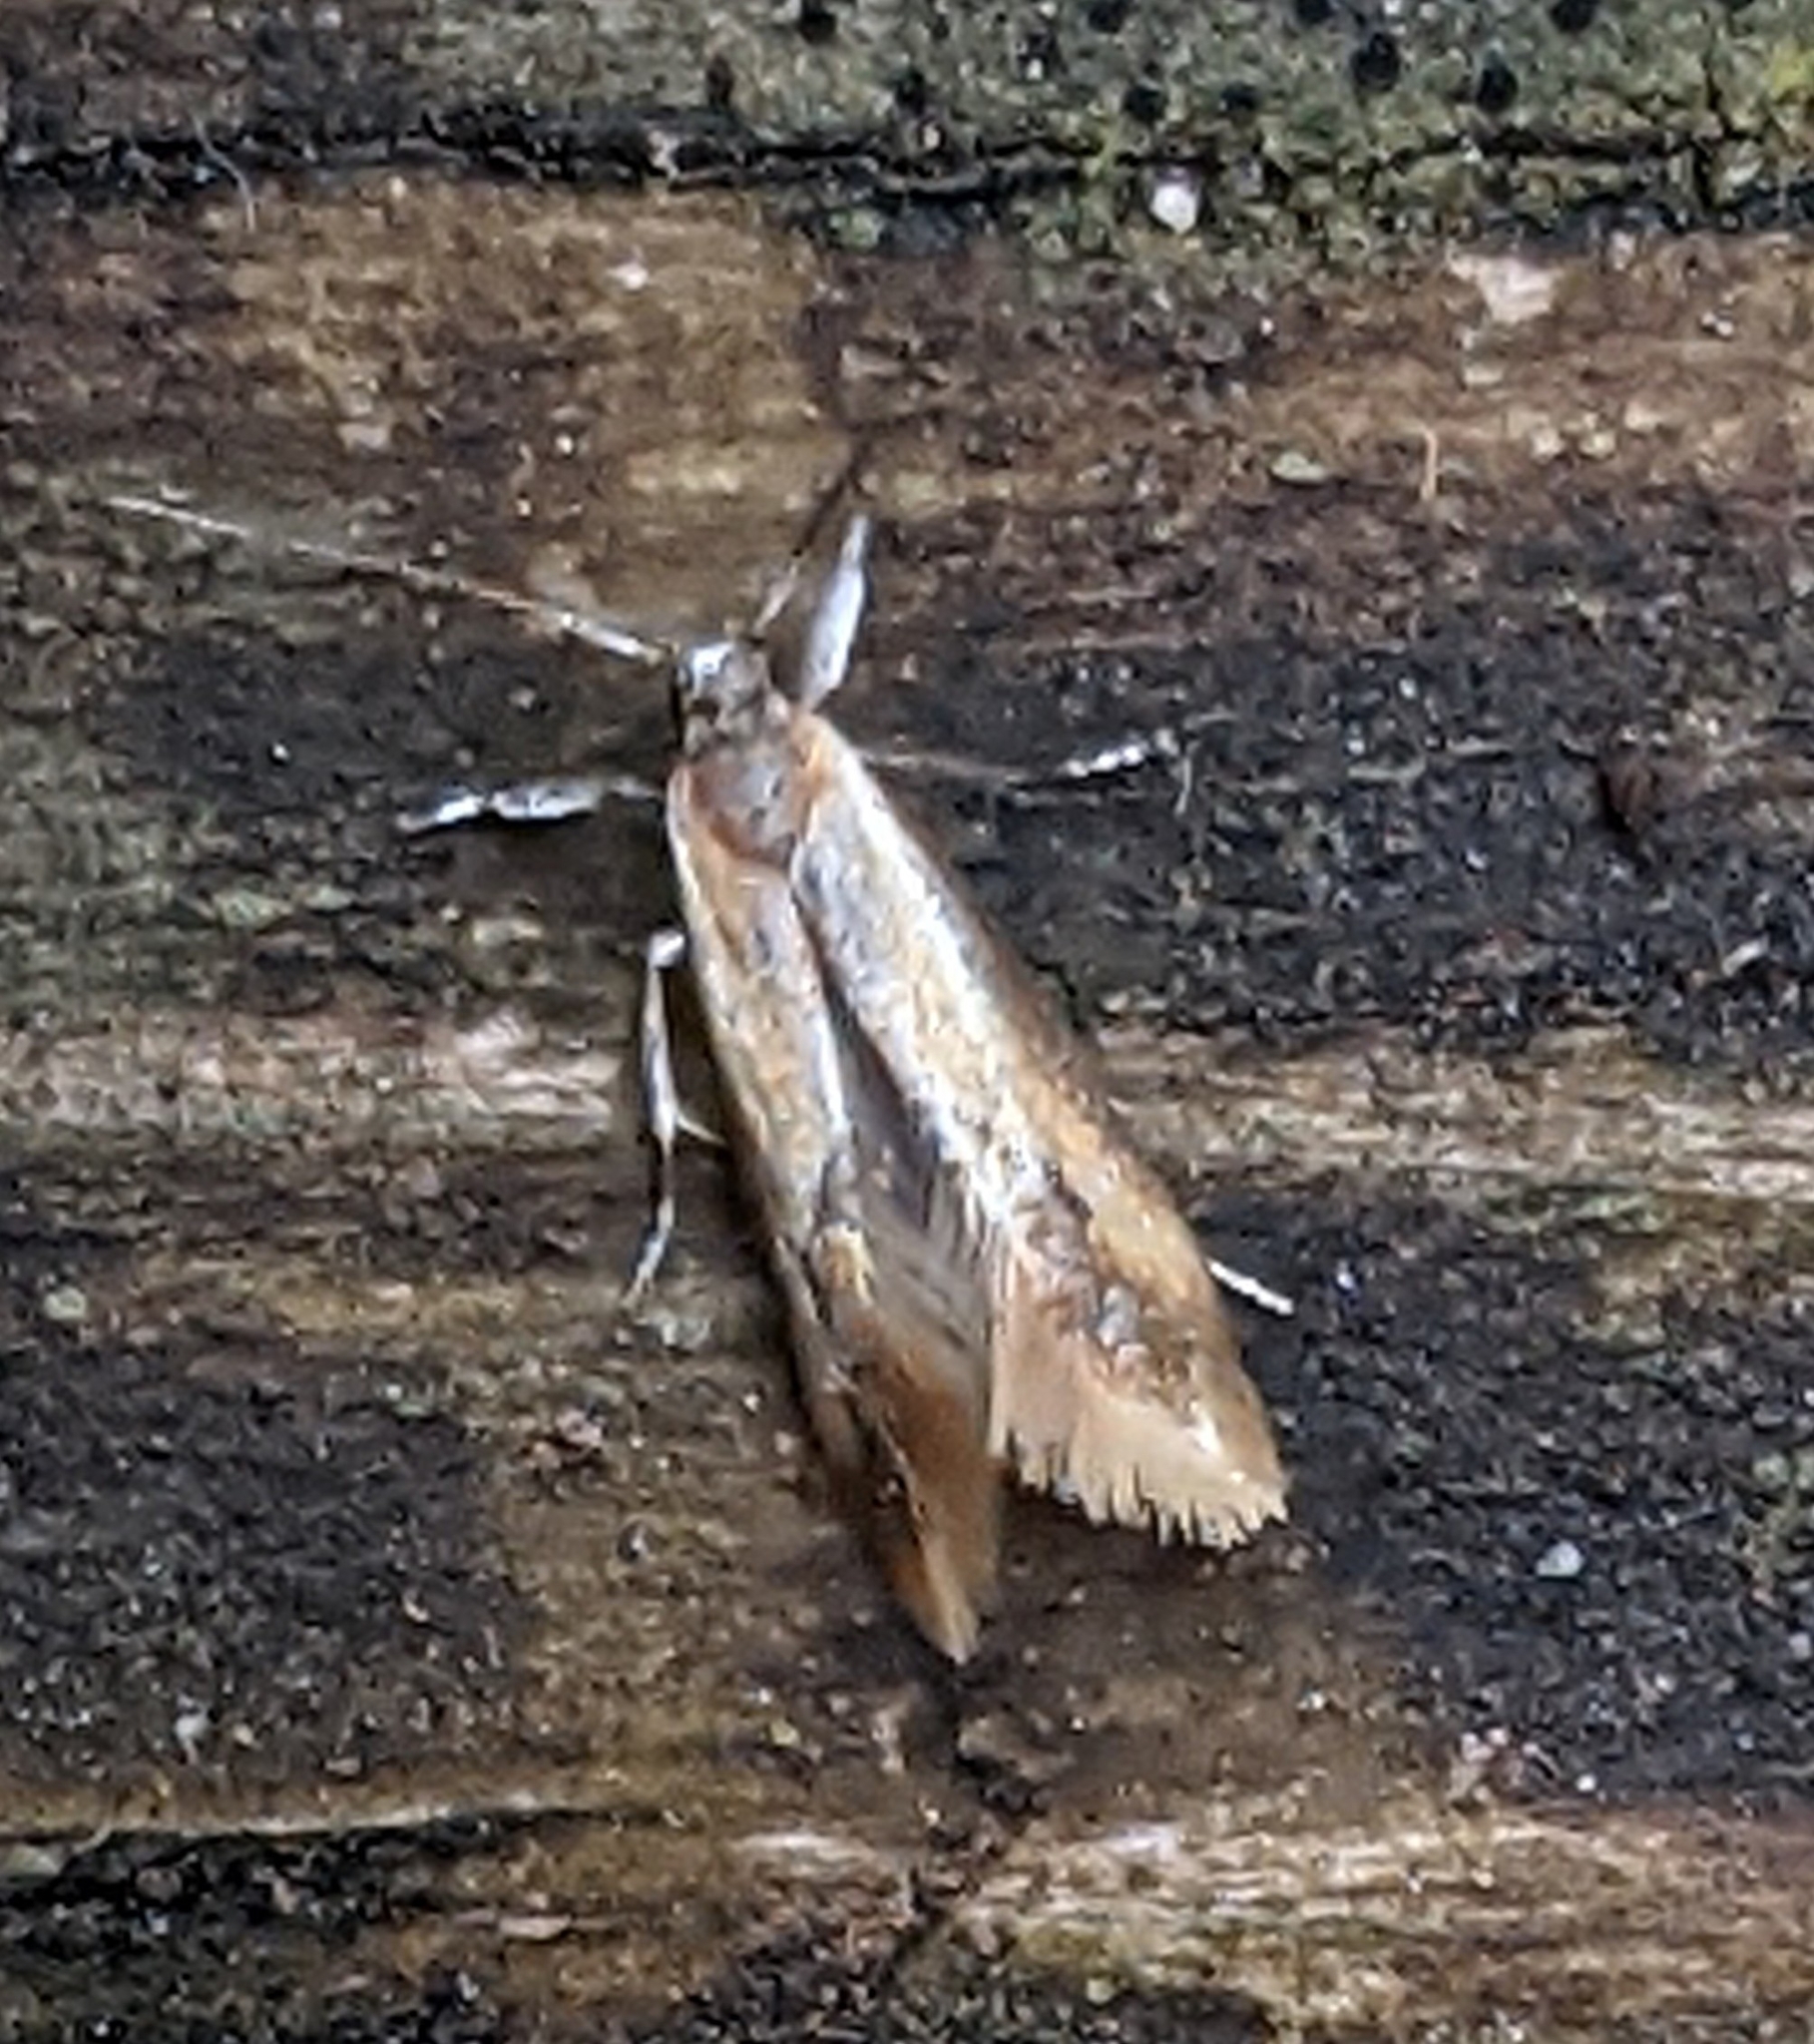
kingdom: Animalia
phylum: Arthropoda
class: Insecta
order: Lepidoptera
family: Oecophoridae
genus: Batia
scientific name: Batia lunaris
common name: Moth
